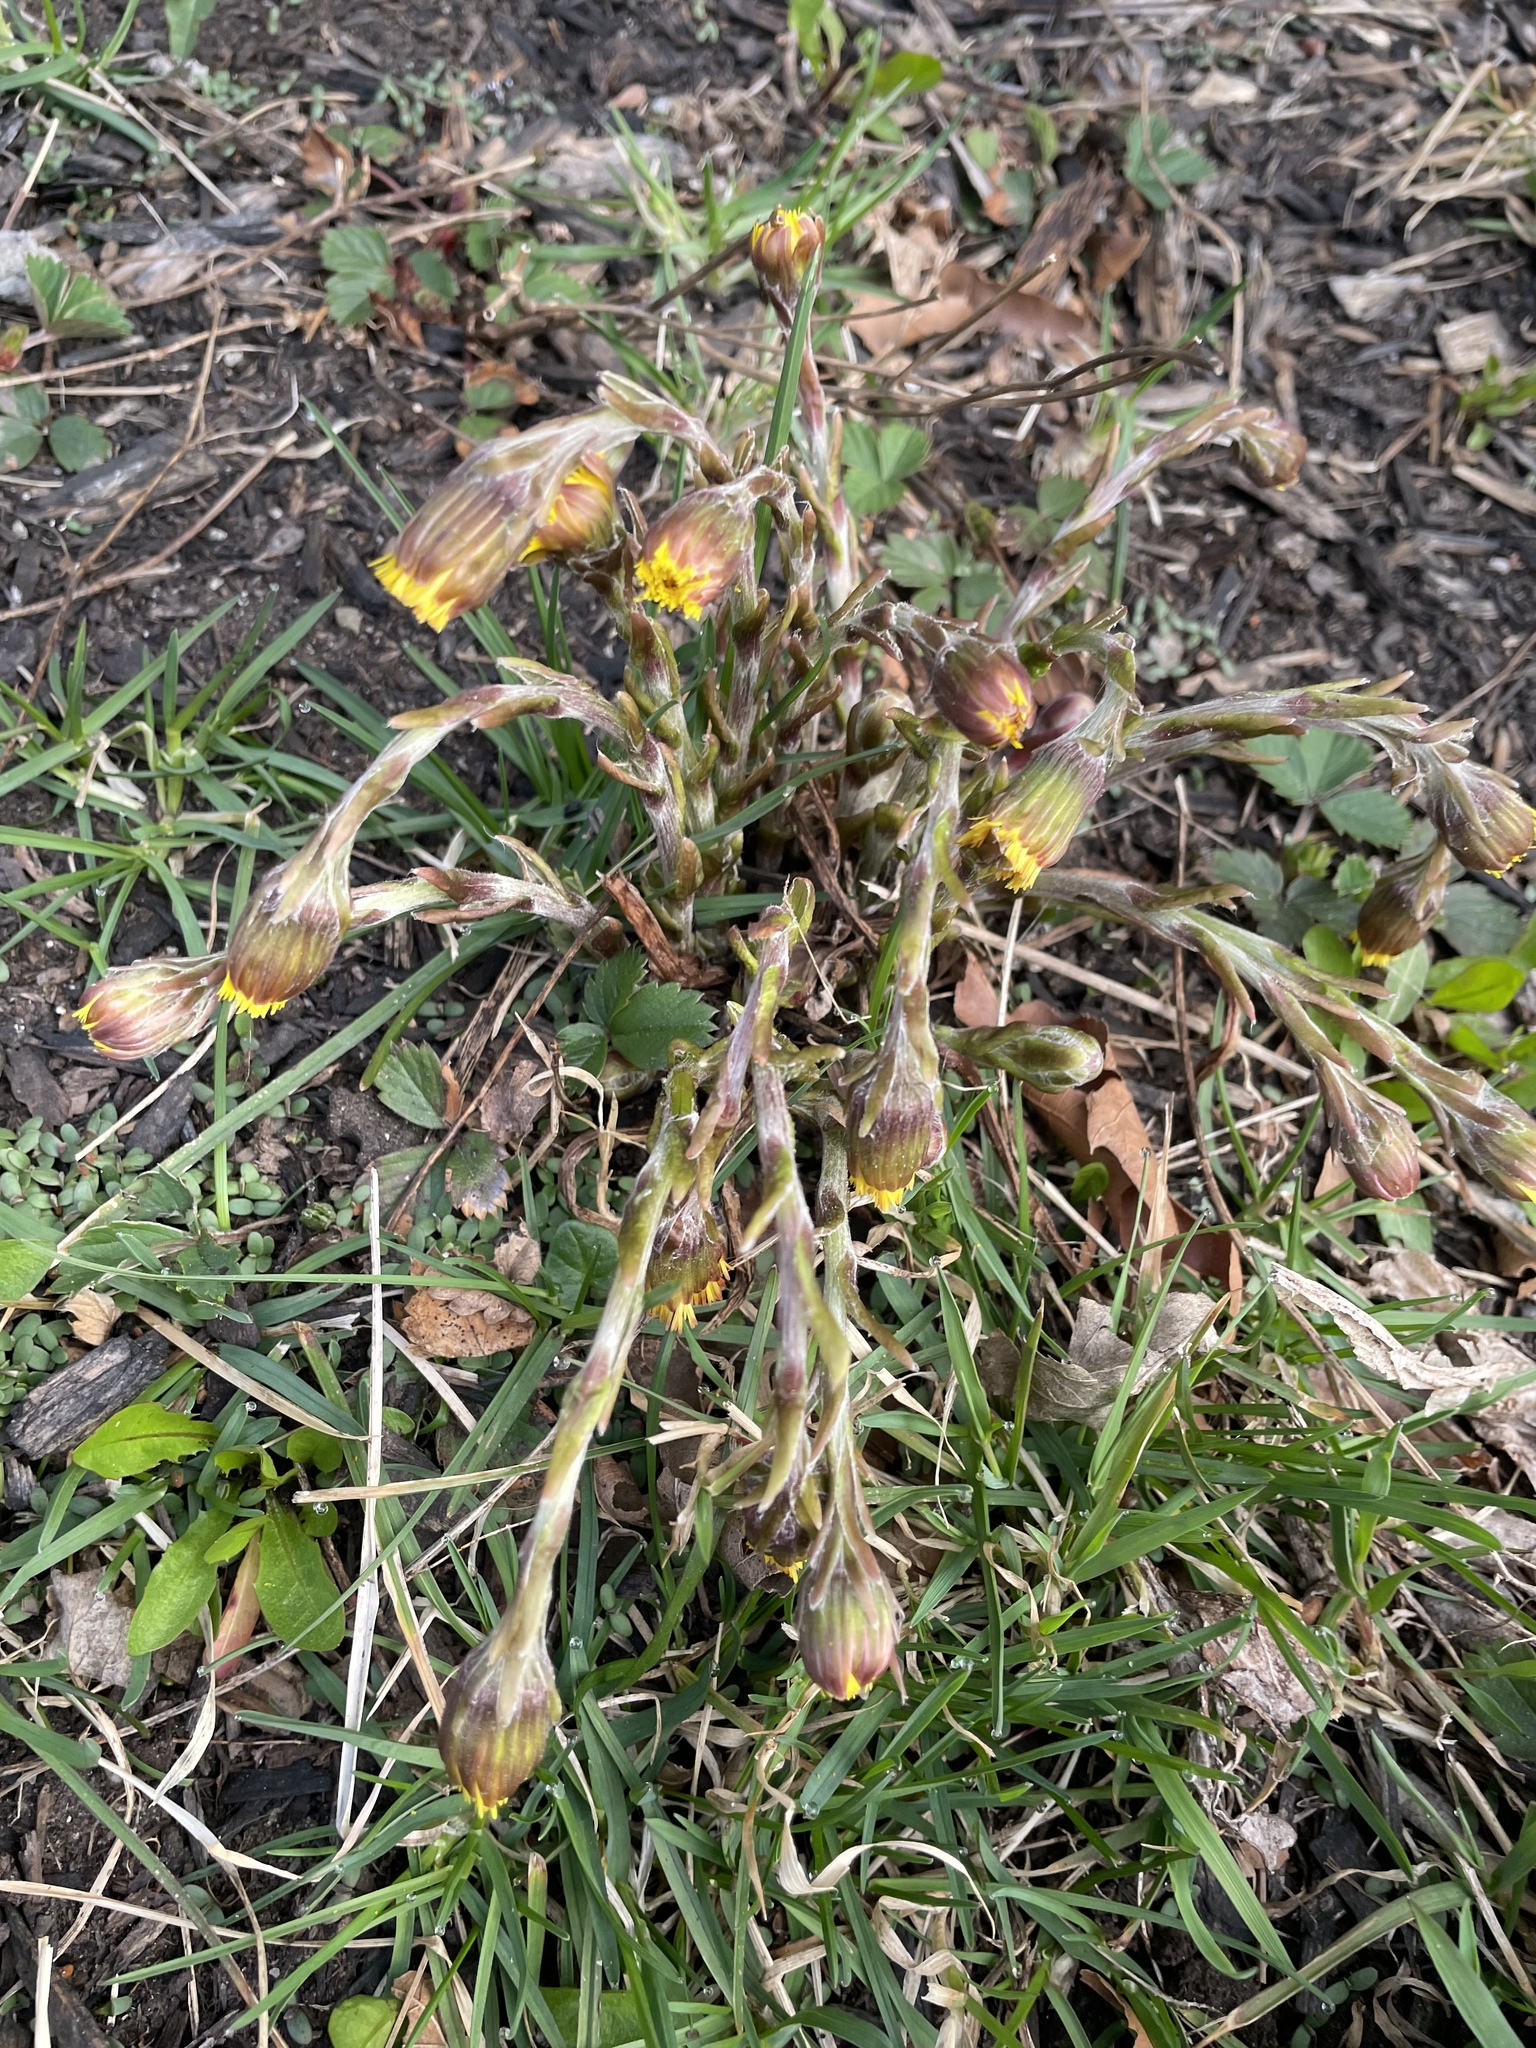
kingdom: Plantae
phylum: Tracheophyta
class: Magnoliopsida
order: Asterales
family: Asteraceae
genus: Tussilago
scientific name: Tussilago farfara
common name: Coltsfoot
